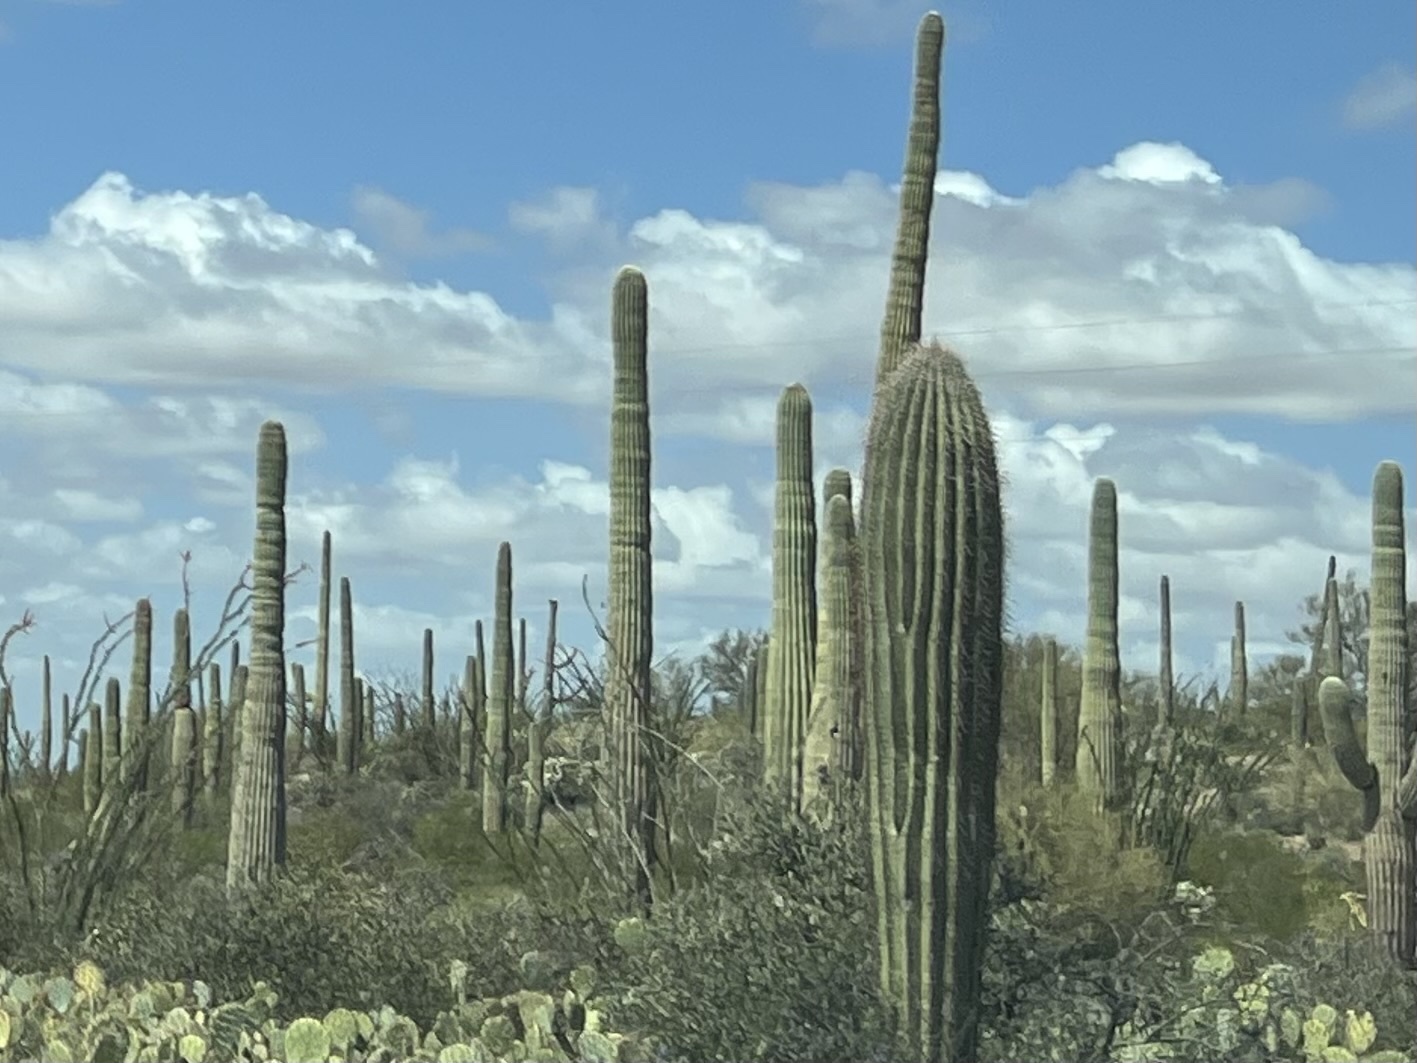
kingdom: Plantae
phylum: Tracheophyta
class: Magnoliopsida
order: Caryophyllales
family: Cactaceae
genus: Carnegiea
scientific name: Carnegiea gigantea
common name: Saguaro
